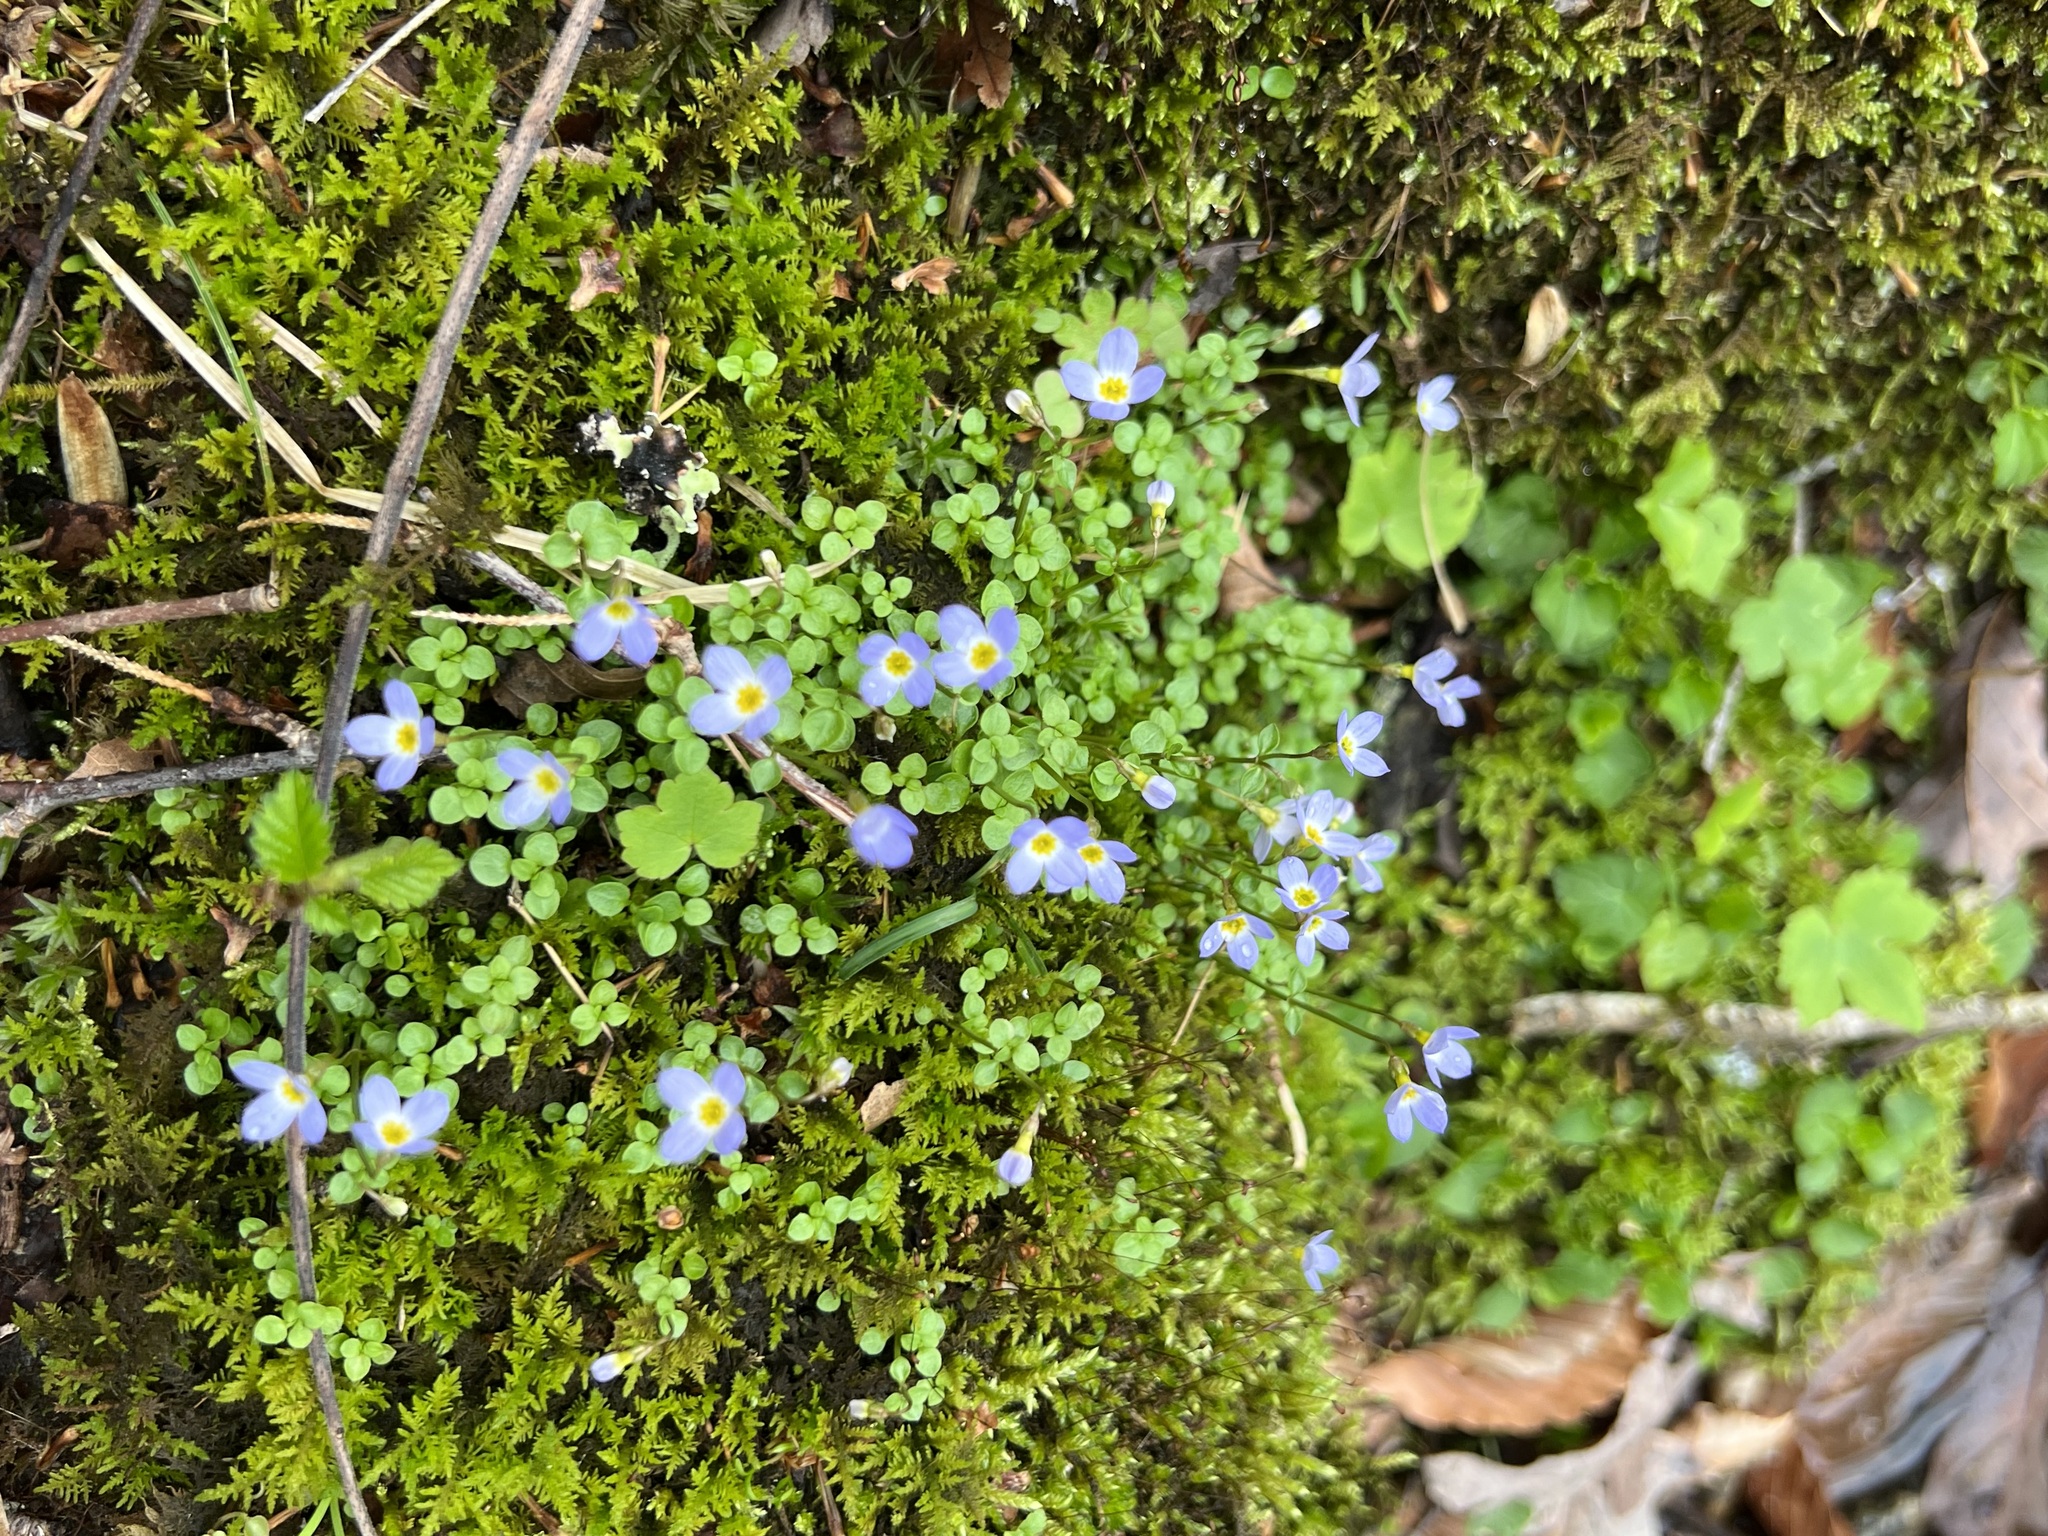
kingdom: Plantae
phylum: Tracheophyta
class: Magnoliopsida
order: Gentianales
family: Rubiaceae
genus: Houstonia
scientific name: Houstonia serpyllifolia
